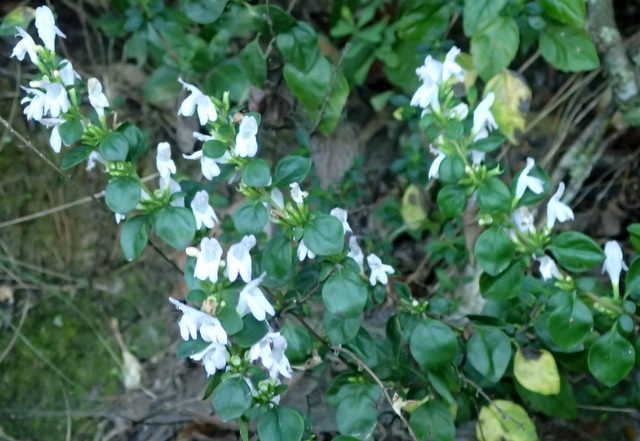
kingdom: Plantae
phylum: Tracheophyta
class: Magnoliopsida
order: Lamiales
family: Lamiaceae
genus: Clinopodium
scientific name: Clinopodium carolinianum
